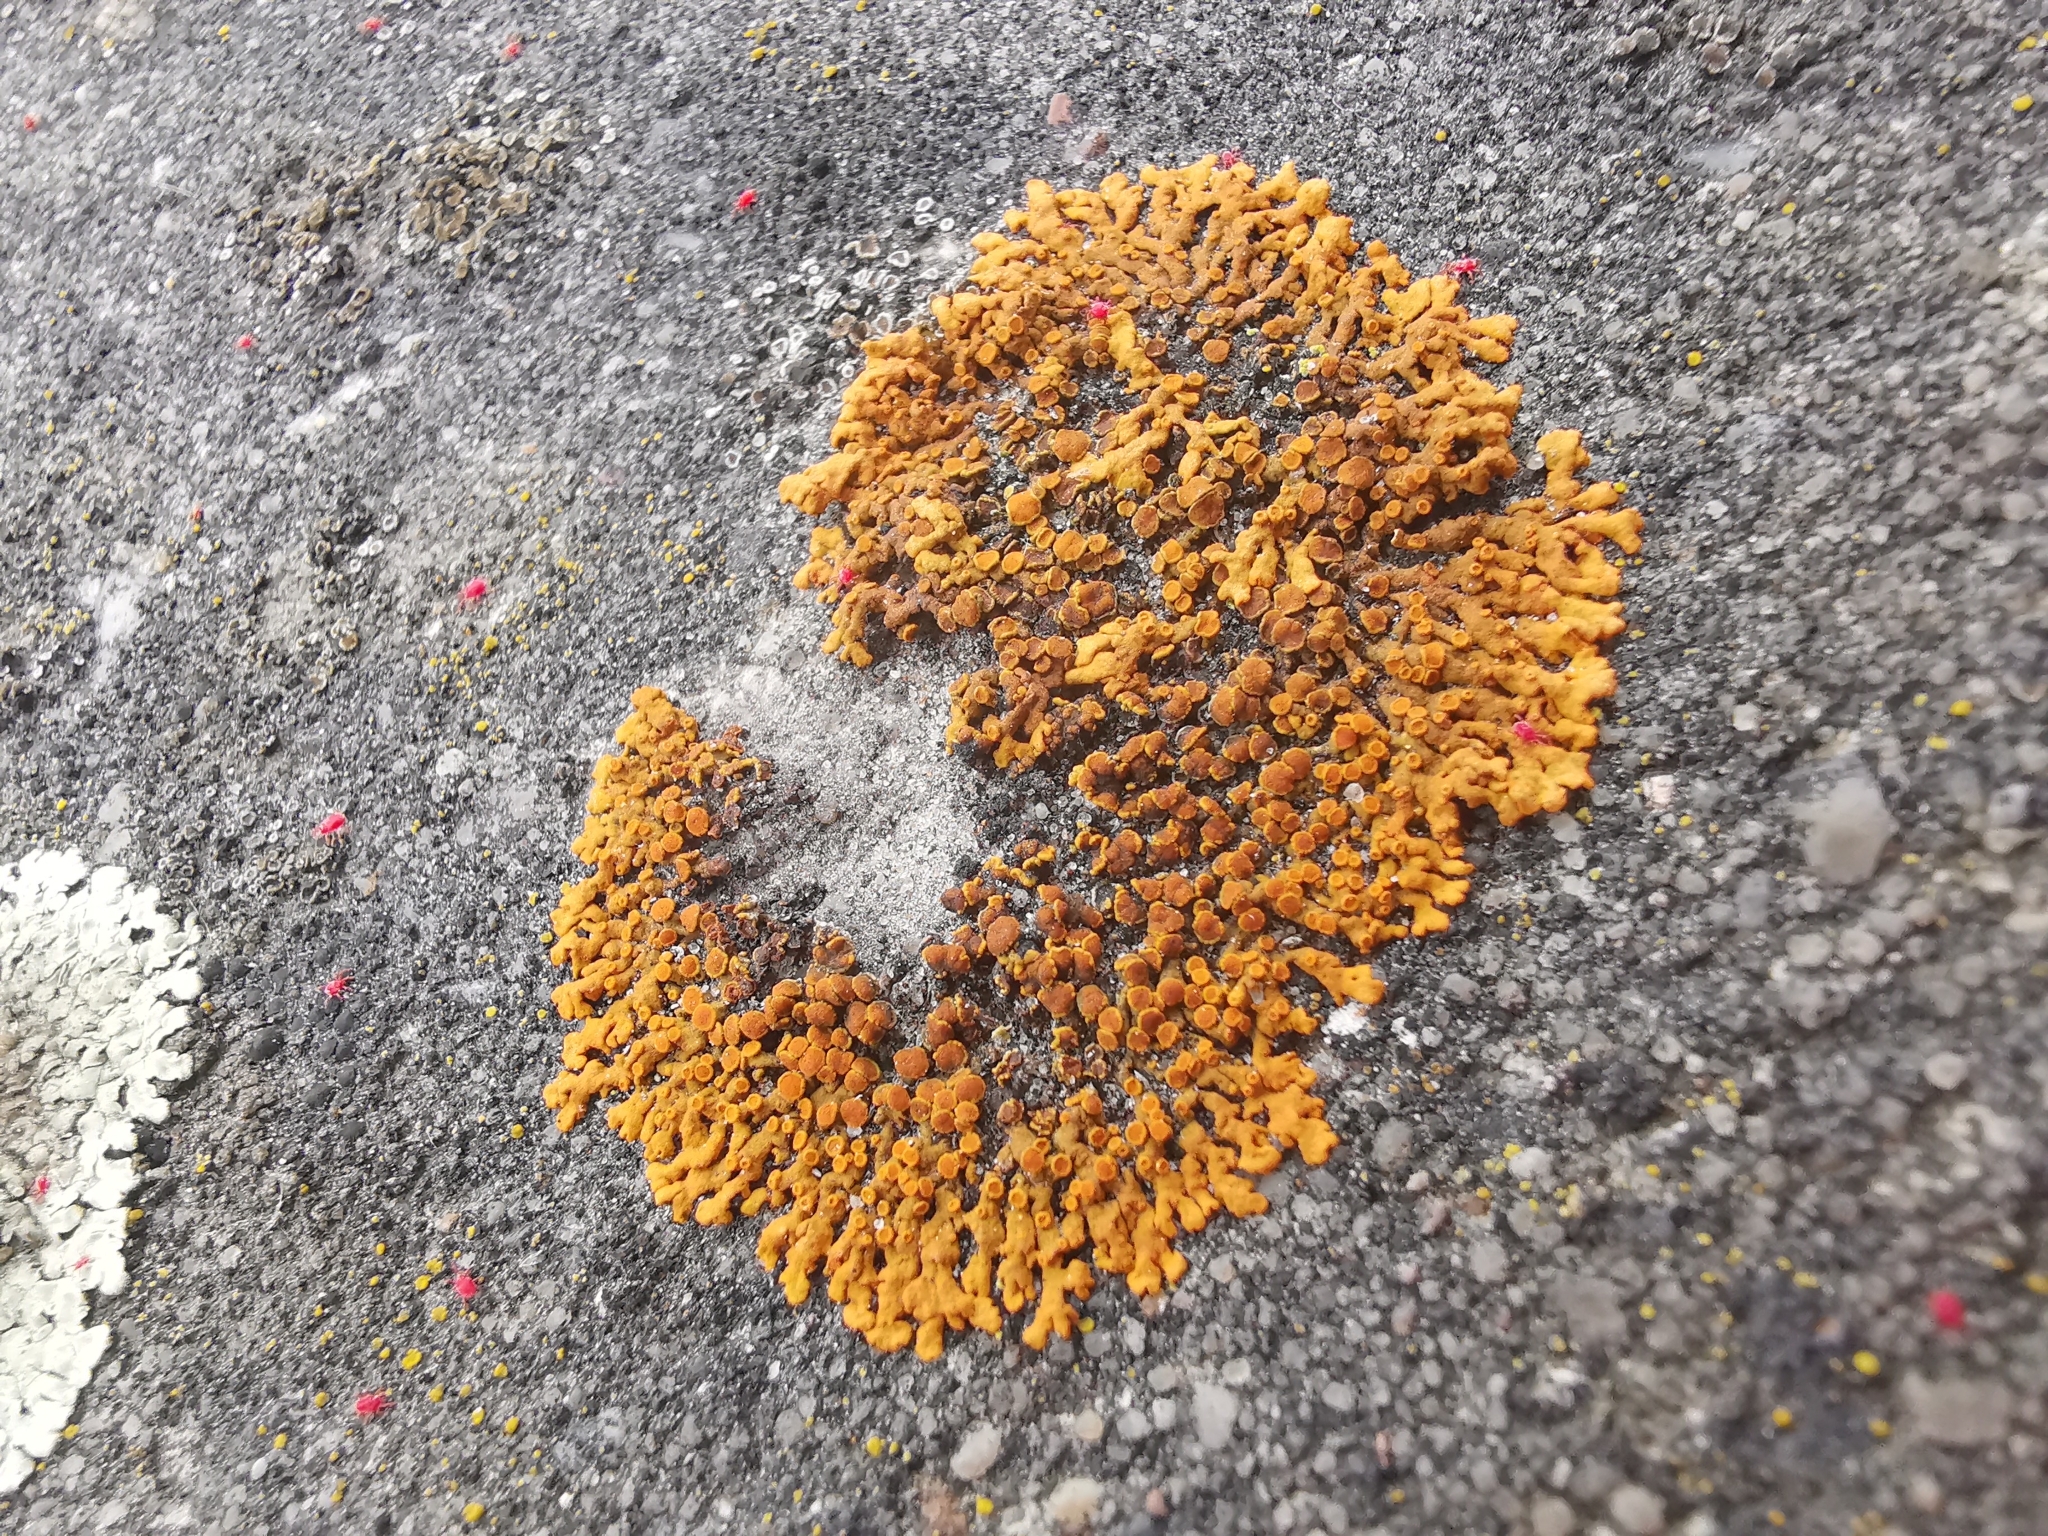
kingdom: Fungi
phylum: Ascomycota
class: Lecanoromycetes
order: Teloschistales
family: Teloschistaceae
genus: Xanthoria
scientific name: Xanthoria elegans
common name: Elegant sunburst lichen
